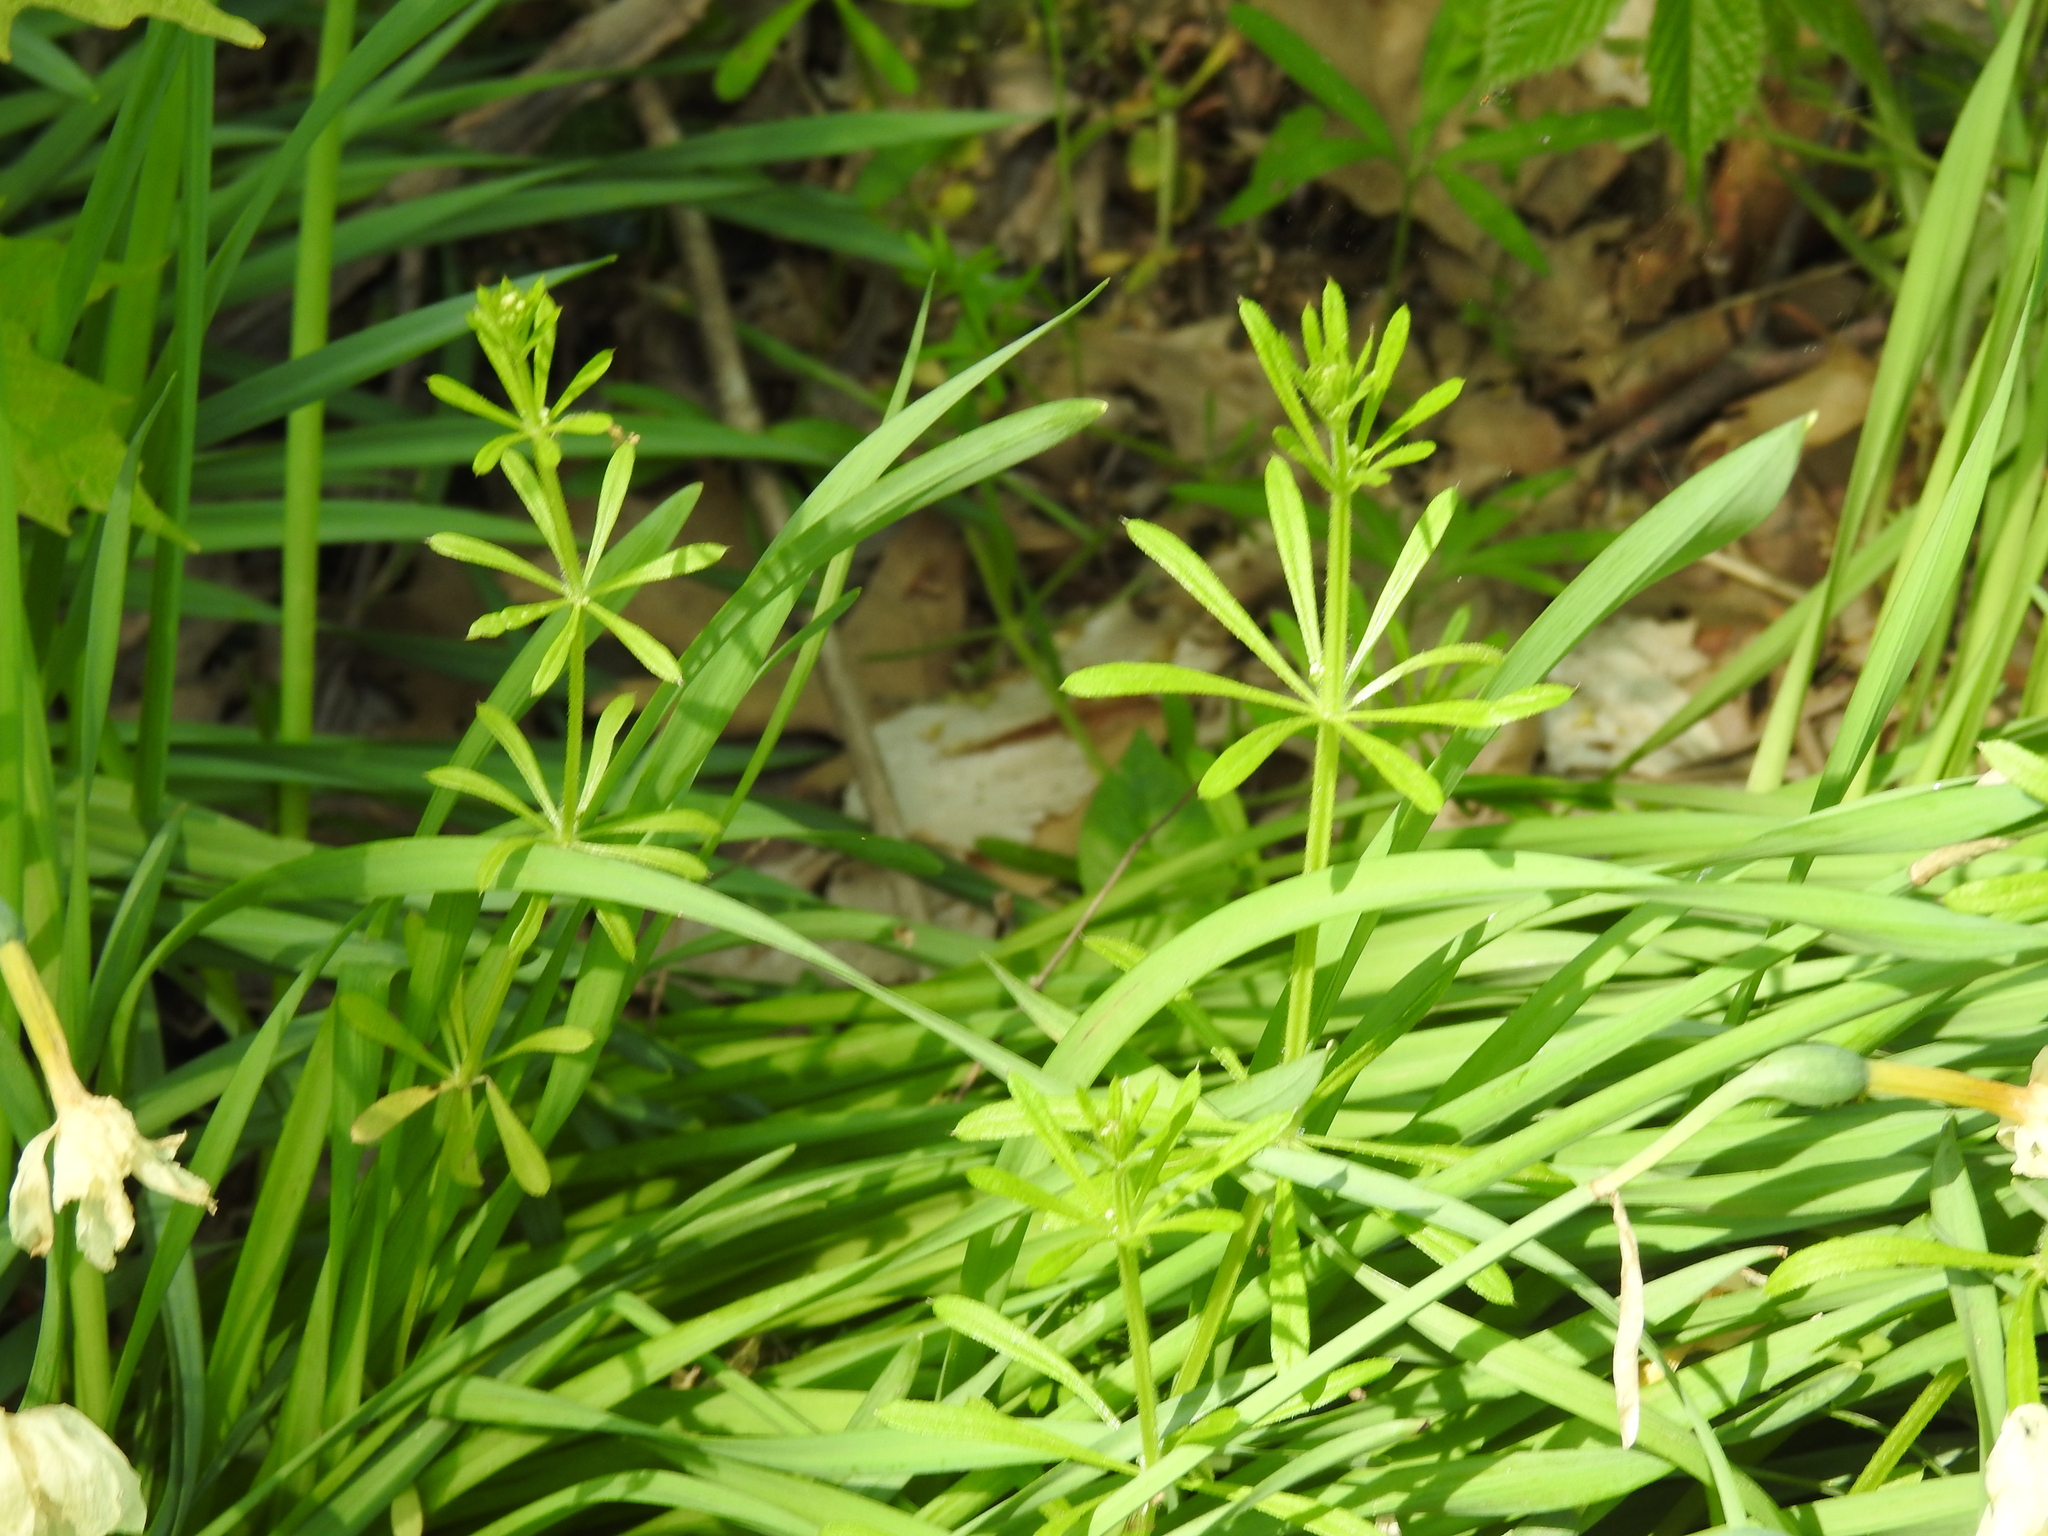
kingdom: Plantae
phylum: Tracheophyta
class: Magnoliopsida
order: Gentianales
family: Rubiaceae
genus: Galium
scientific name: Galium aparine
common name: Cleavers
